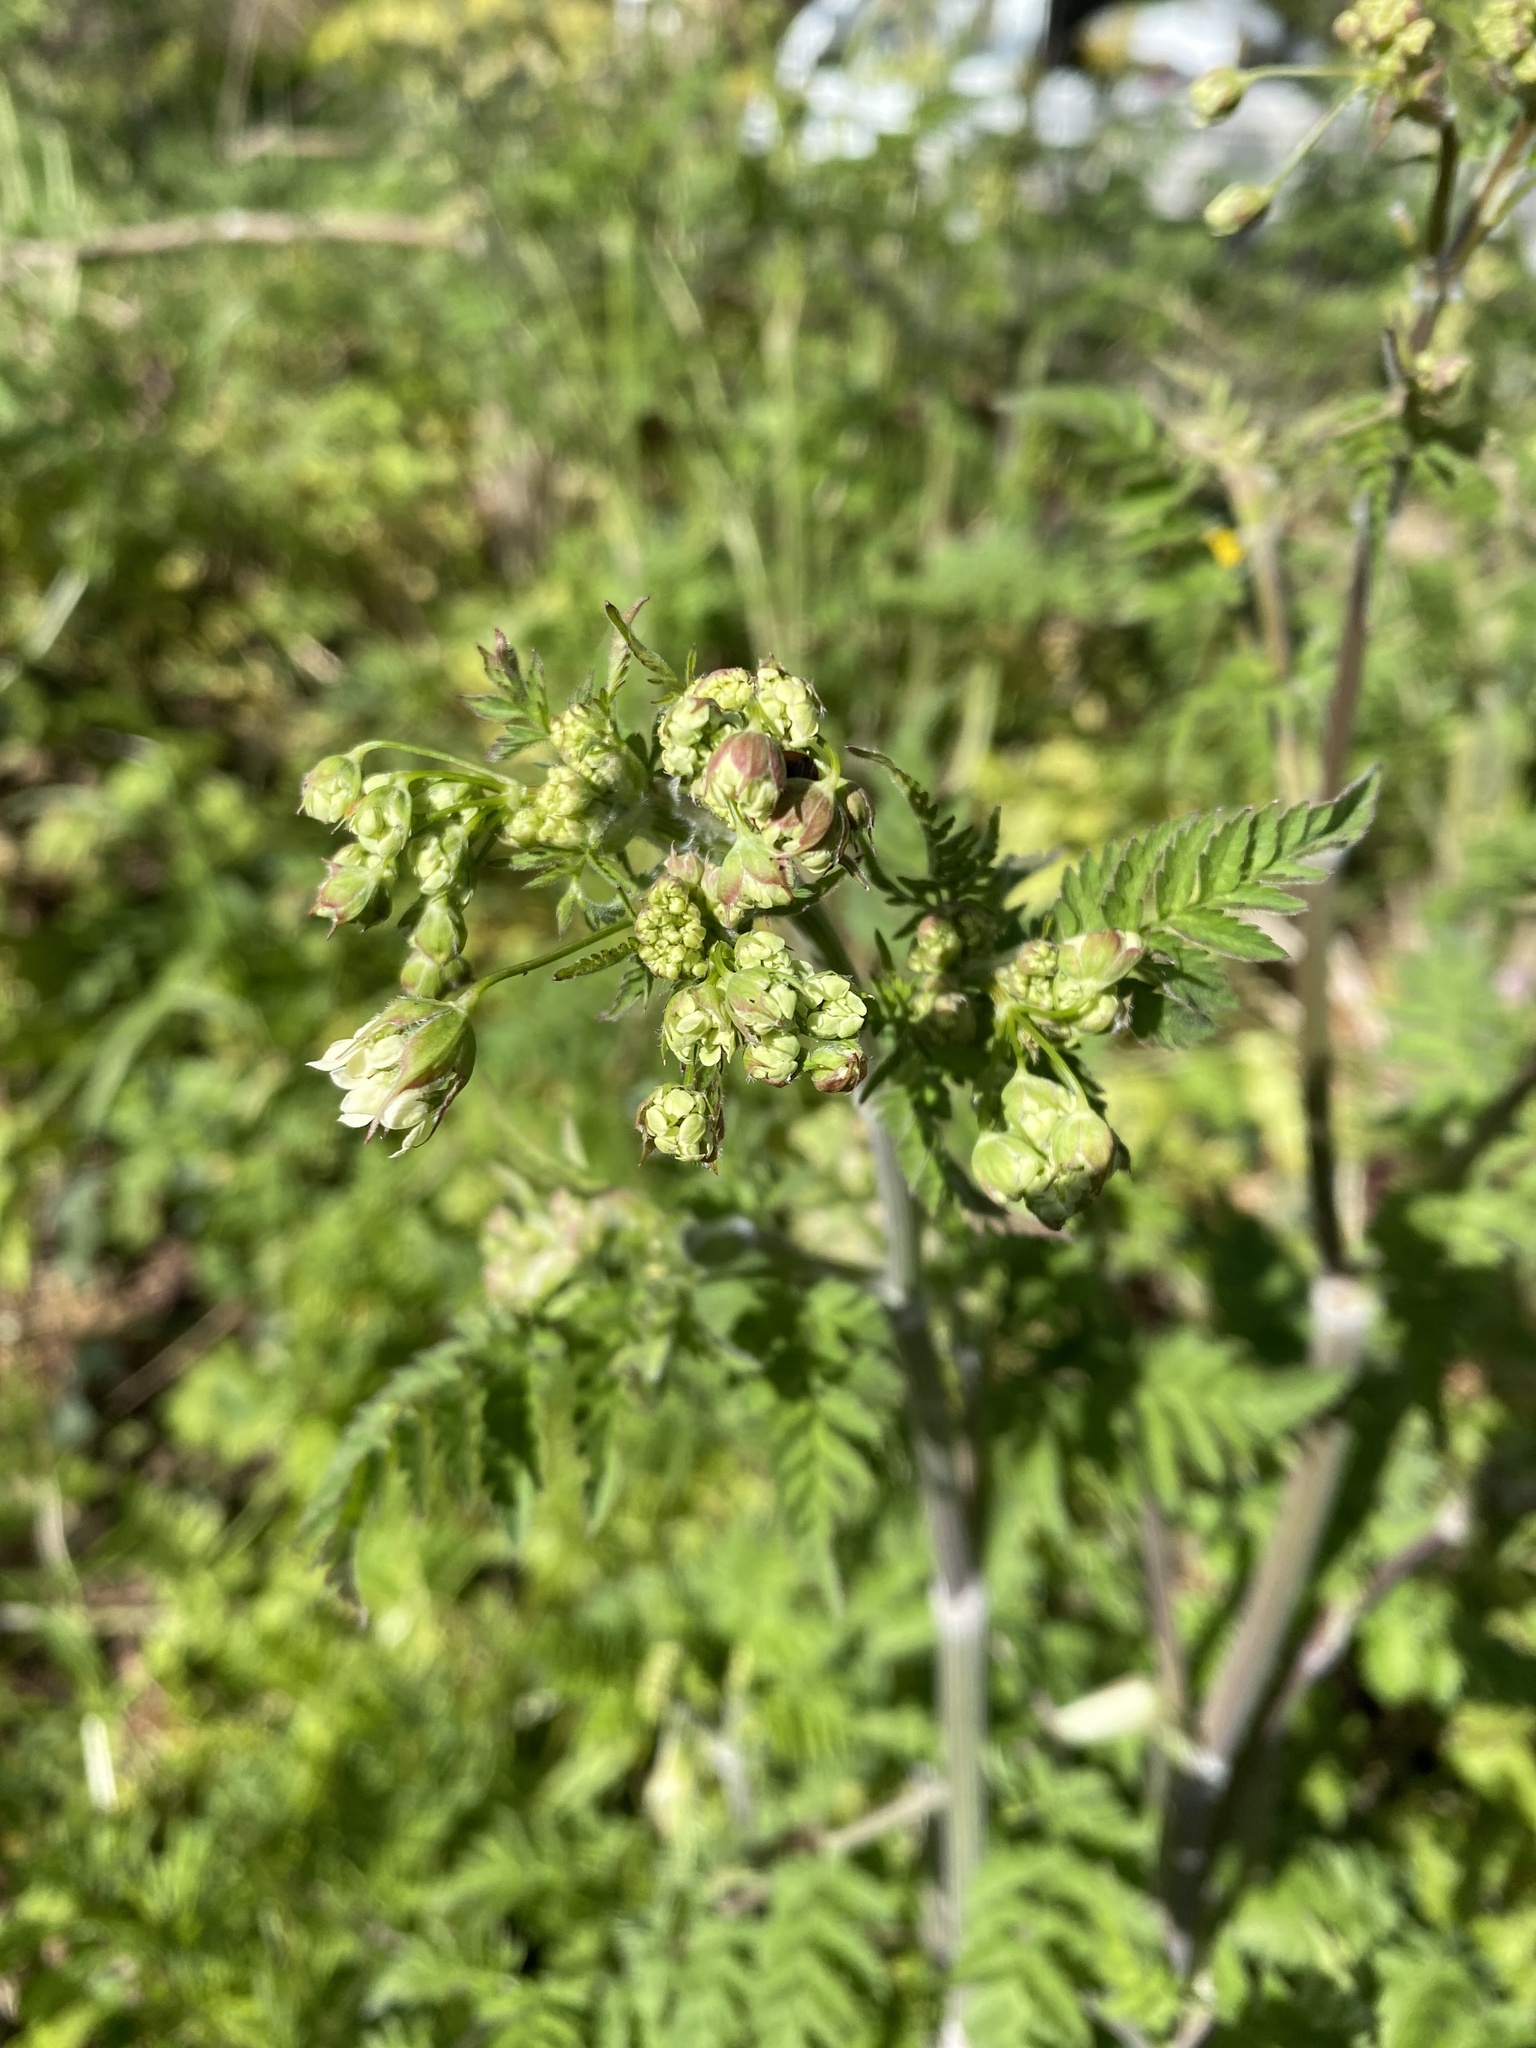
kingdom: Plantae
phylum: Tracheophyta
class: Magnoliopsida
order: Apiales
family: Apiaceae
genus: Anthriscus
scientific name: Anthriscus sylvestris
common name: Cow parsley
